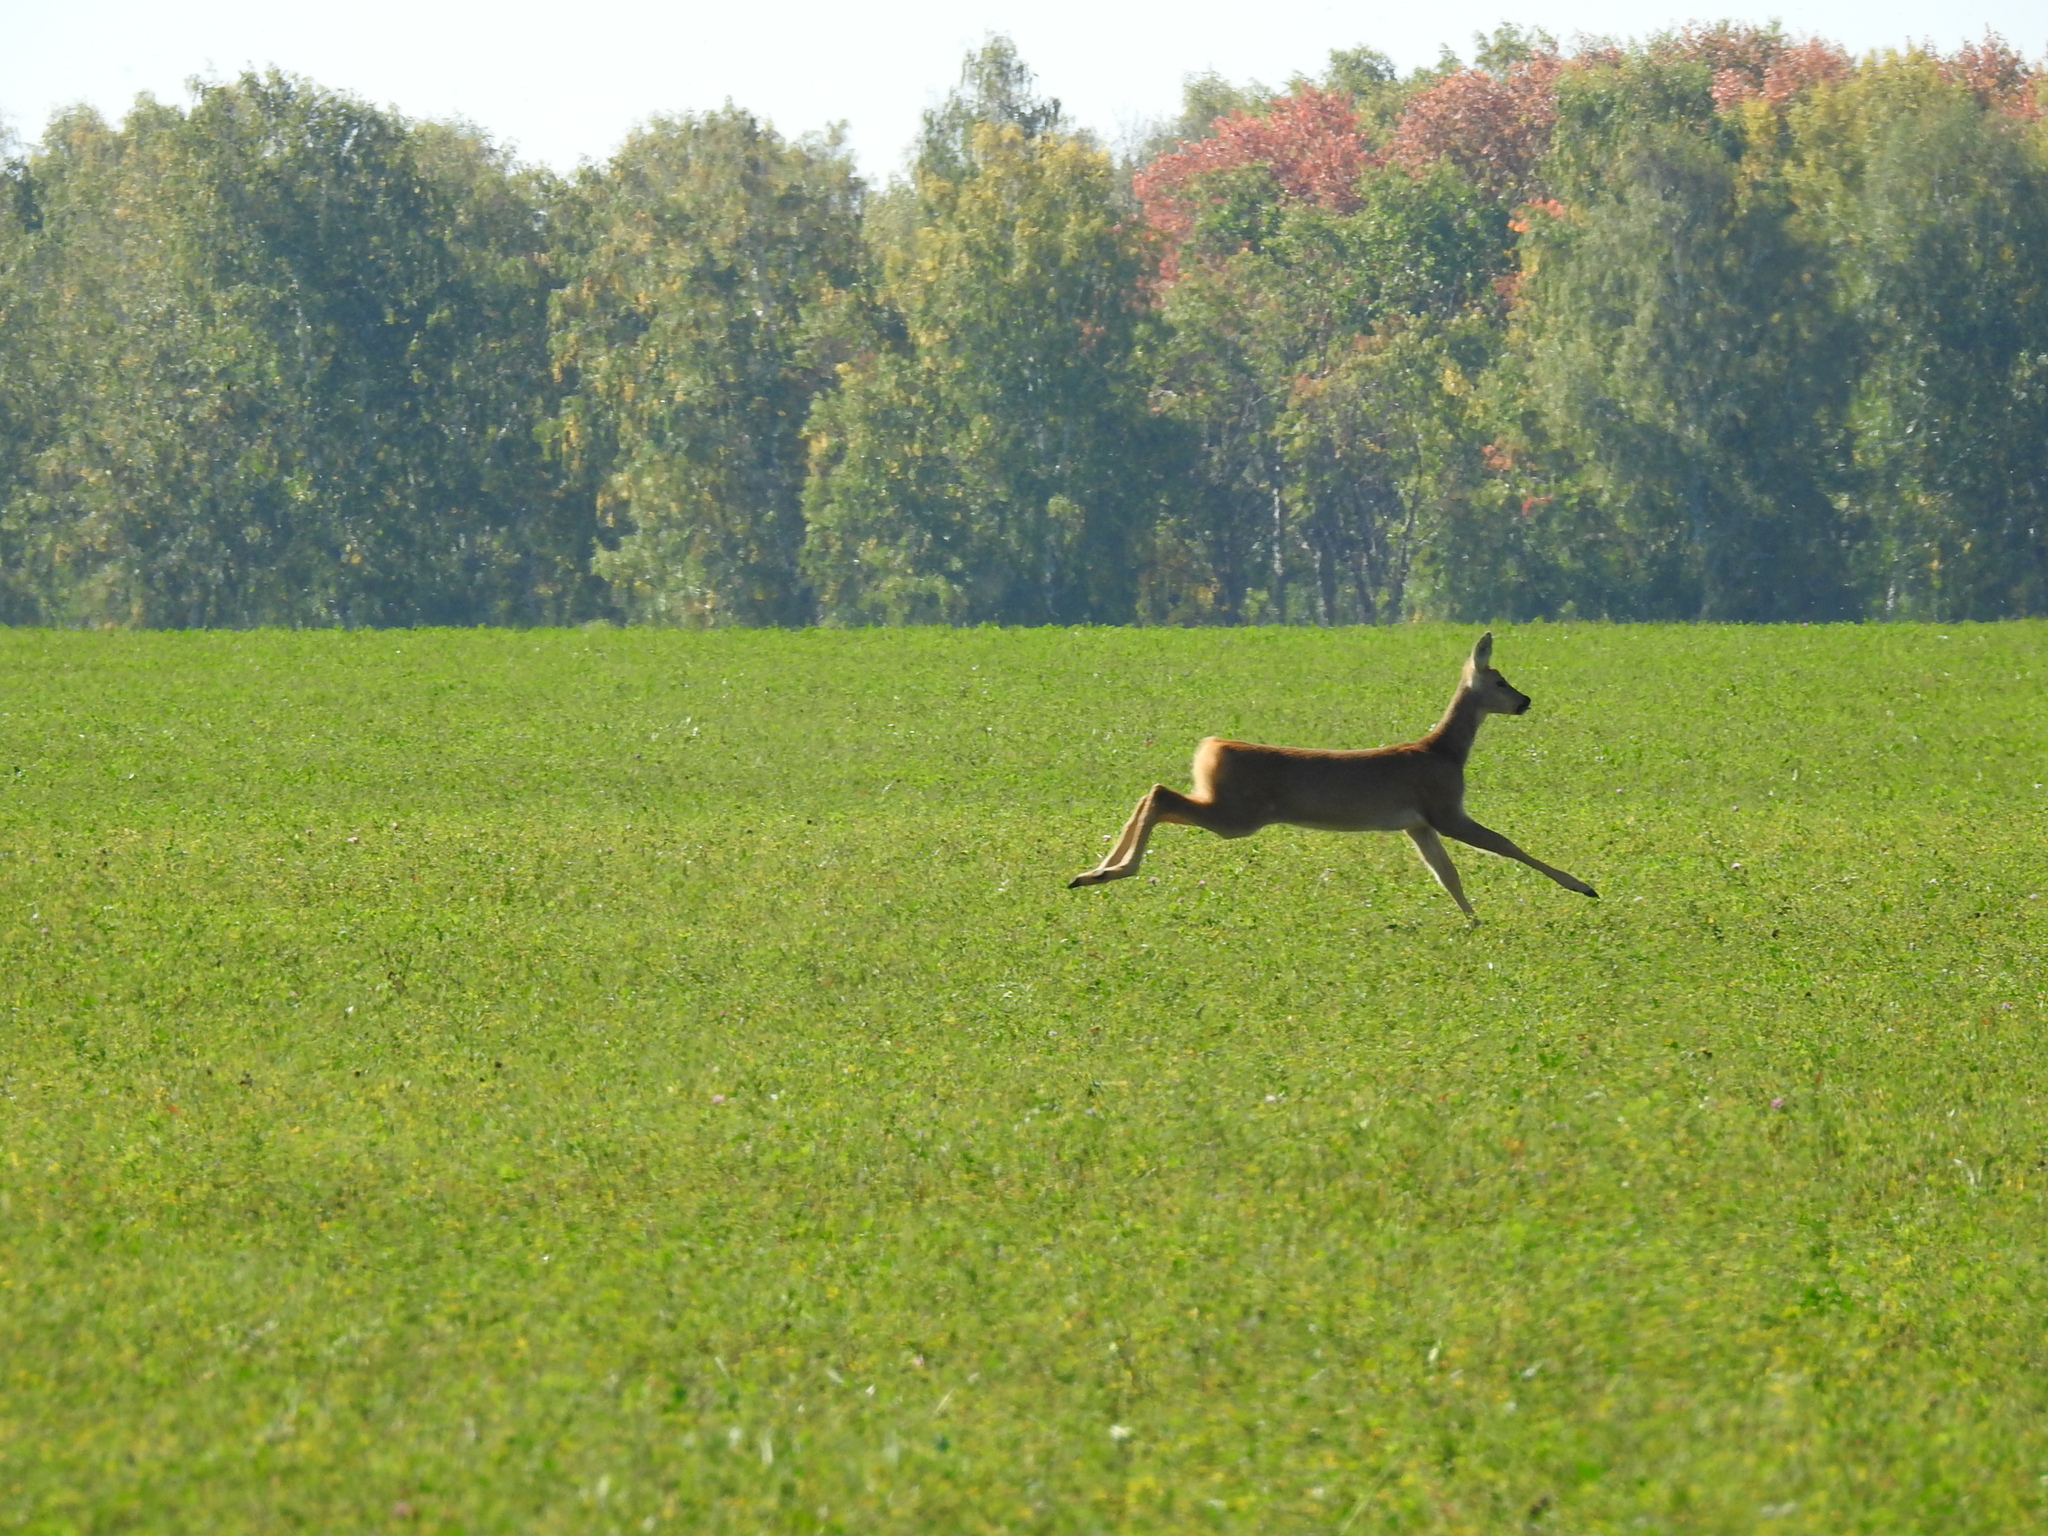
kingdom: Animalia
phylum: Chordata
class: Mammalia
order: Artiodactyla
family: Cervidae
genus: Capreolus
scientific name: Capreolus pygargus
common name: Siberian roe
